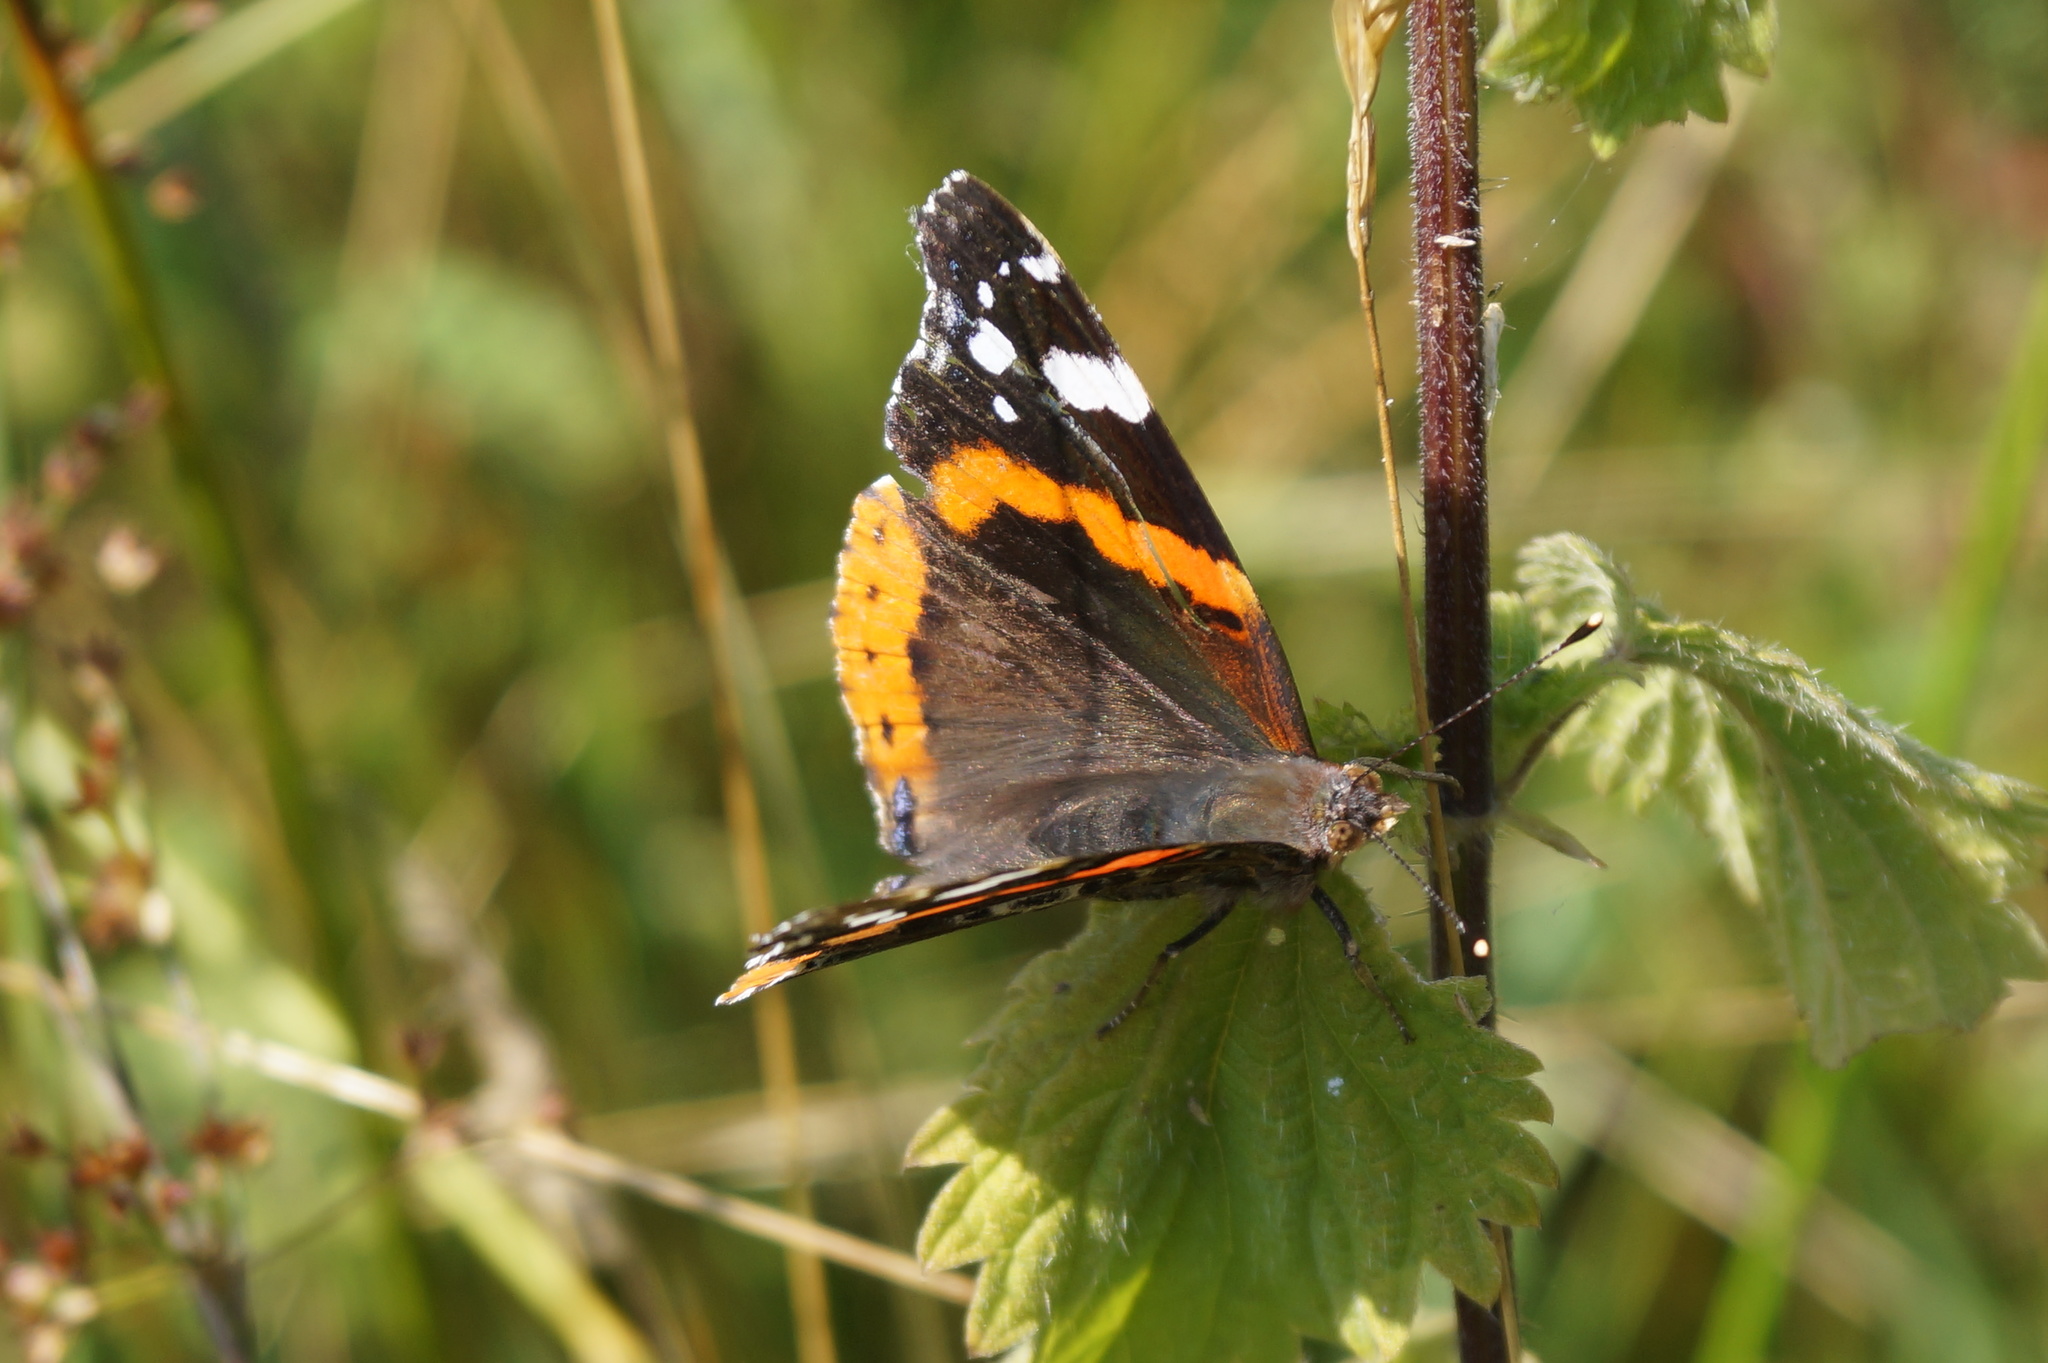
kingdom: Animalia
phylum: Arthropoda
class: Insecta
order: Lepidoptera
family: Nymphalidae
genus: Vanessa
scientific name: Vanessa atalanta
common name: Red admiral
